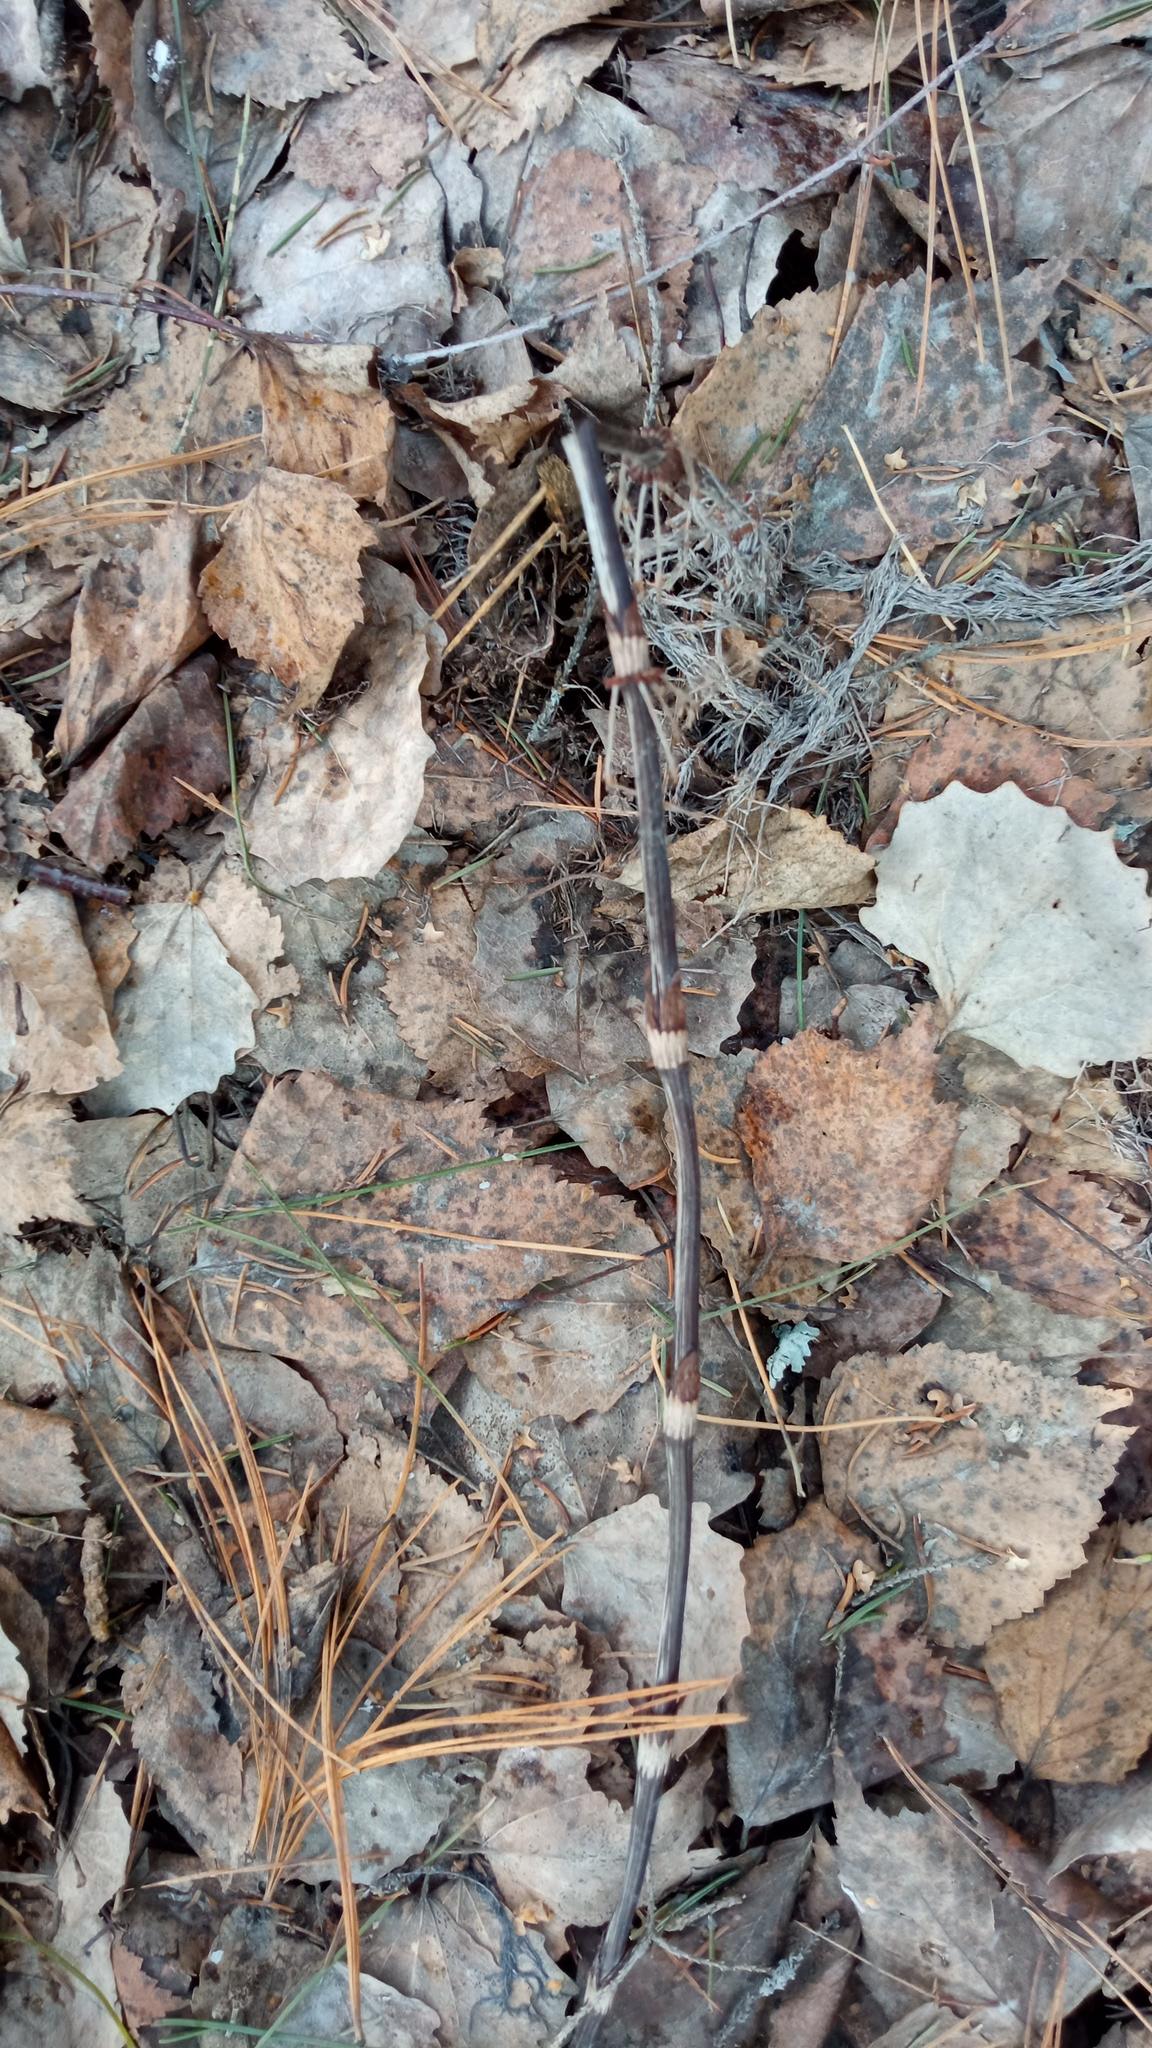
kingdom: Plantae
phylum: Tracheophyta
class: Polypodiopsida
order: Equisetales
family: Equisetaceae
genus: Equisetum
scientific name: Equisetum sylvaticum
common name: Wood horsetail
